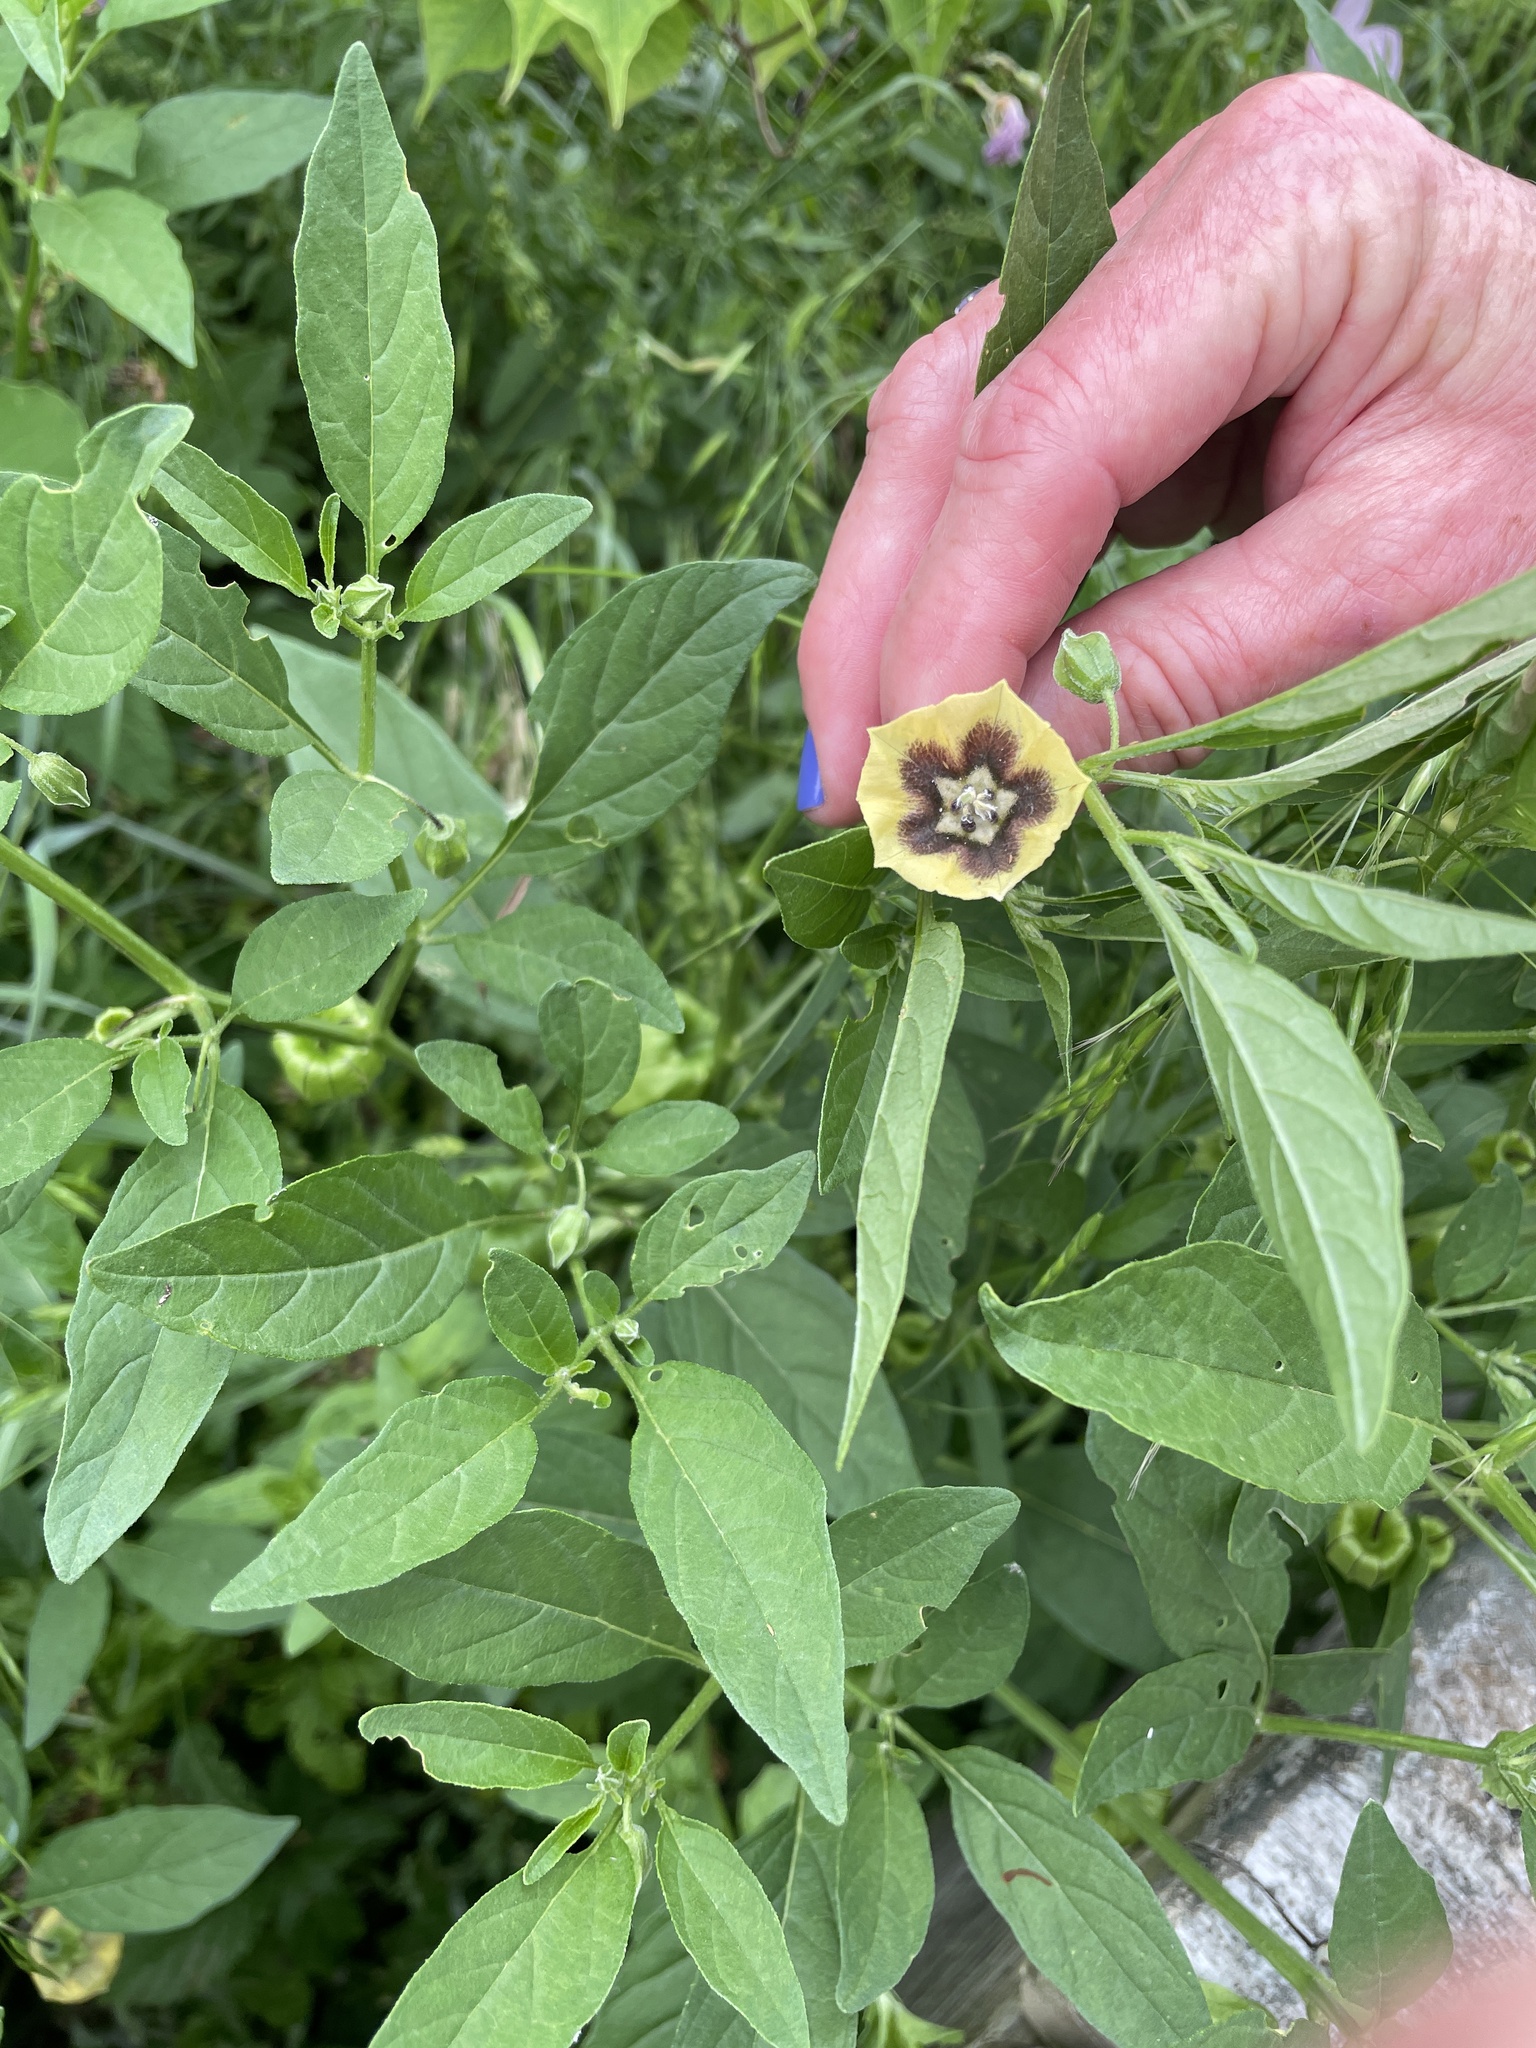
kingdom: Plantae
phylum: Tracheophyta
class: Magnoliopsida
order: Solanales
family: Solanaceae
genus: Physalis
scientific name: Physalis longifolia
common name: Common ground-cherry
